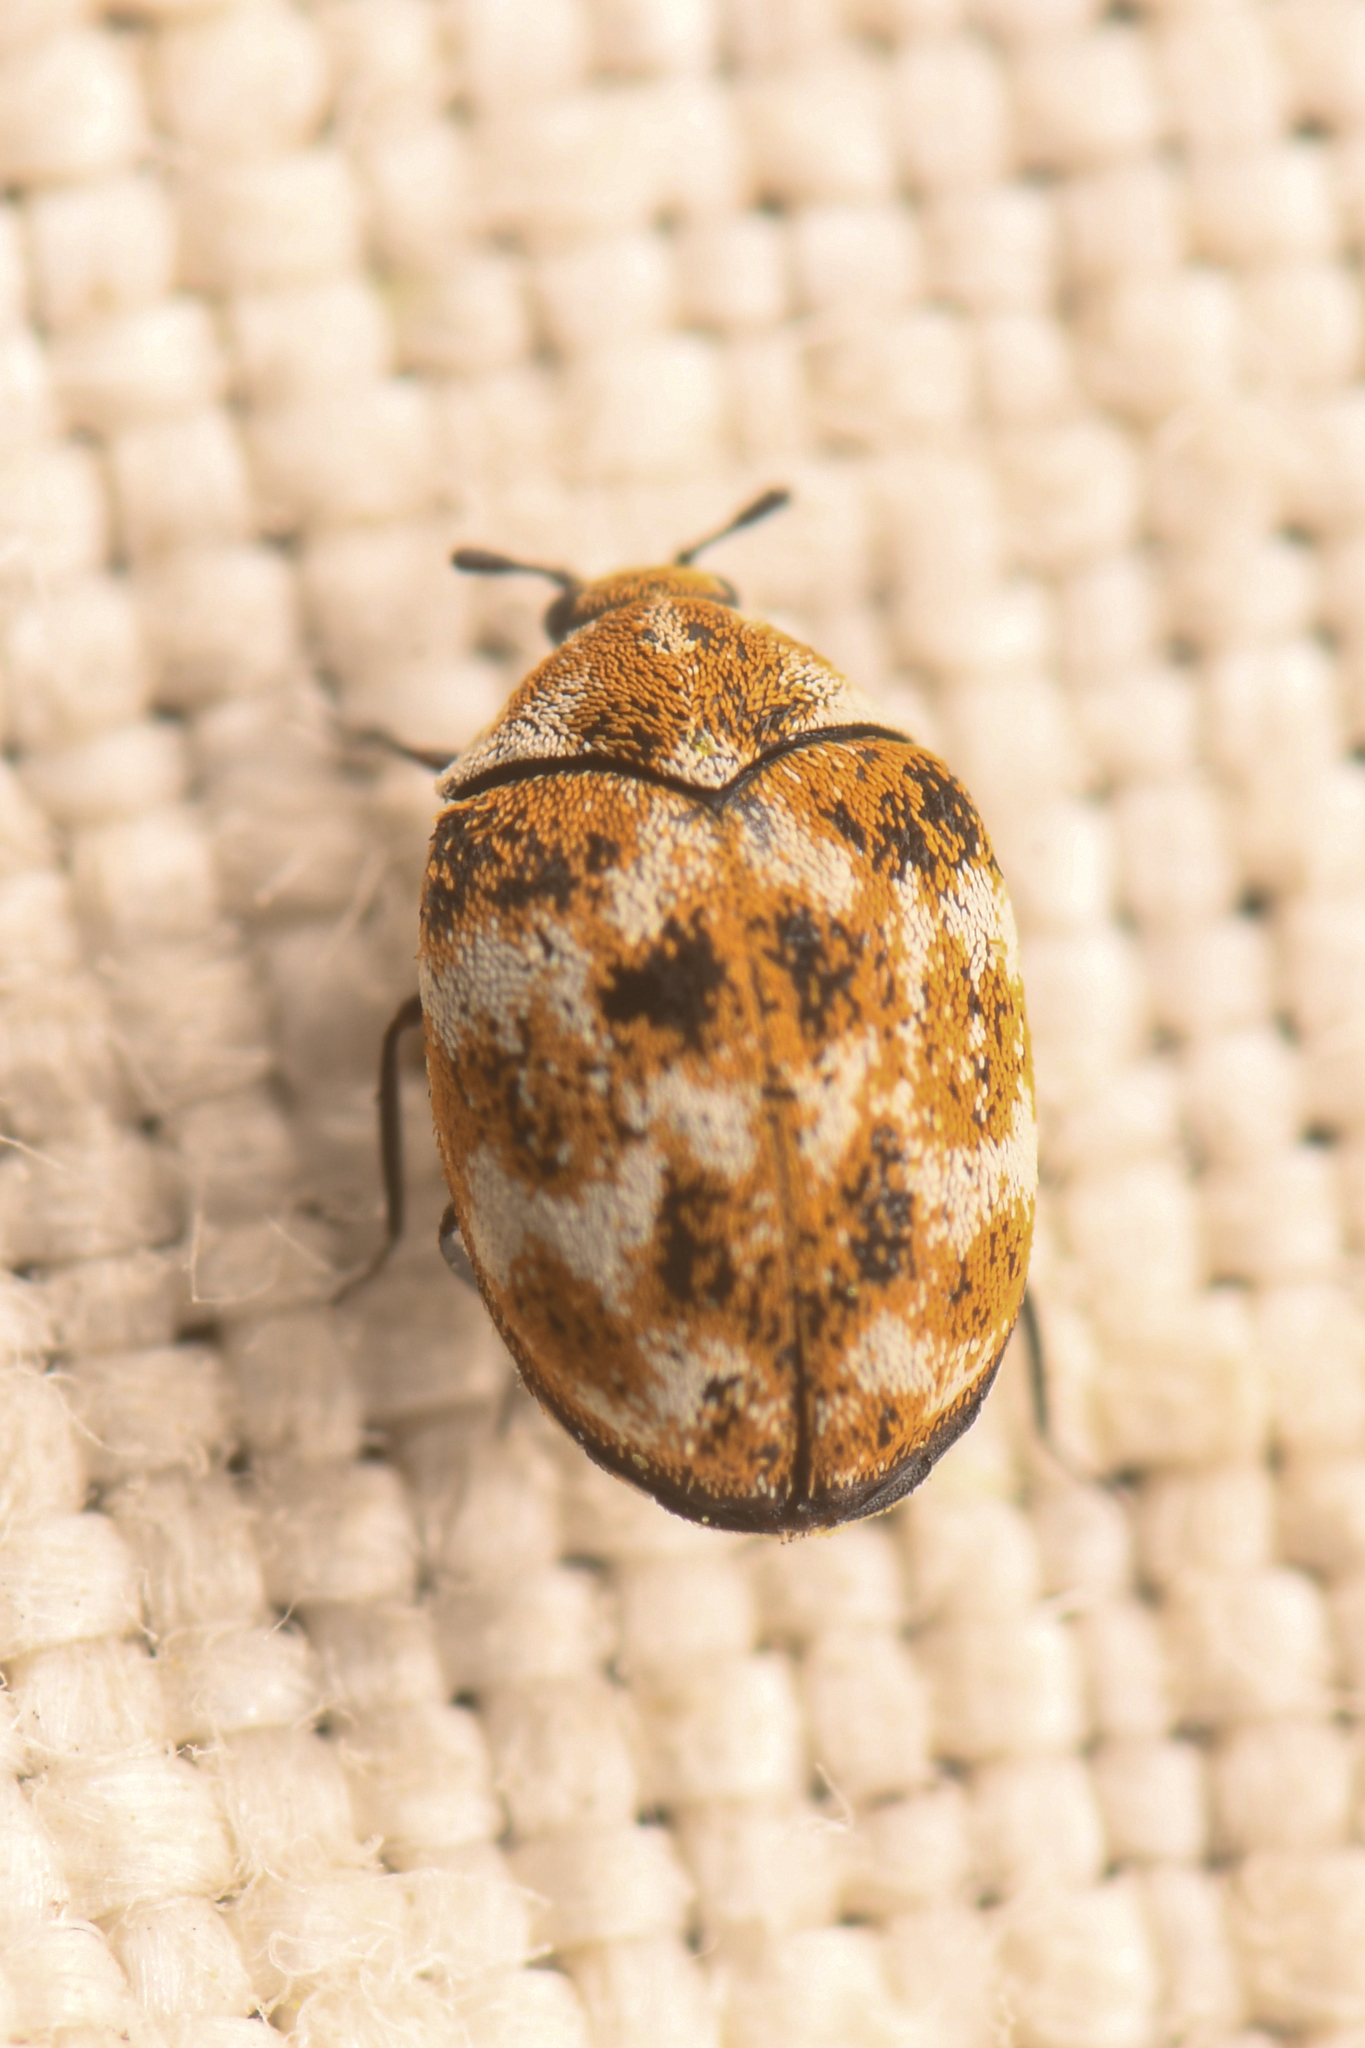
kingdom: Animalia
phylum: Arthropoda
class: Insecta
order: Coleoptera
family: Dermestidae
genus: Anthrenus
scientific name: Anthrenus verbasci
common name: Varied carpet beetle
